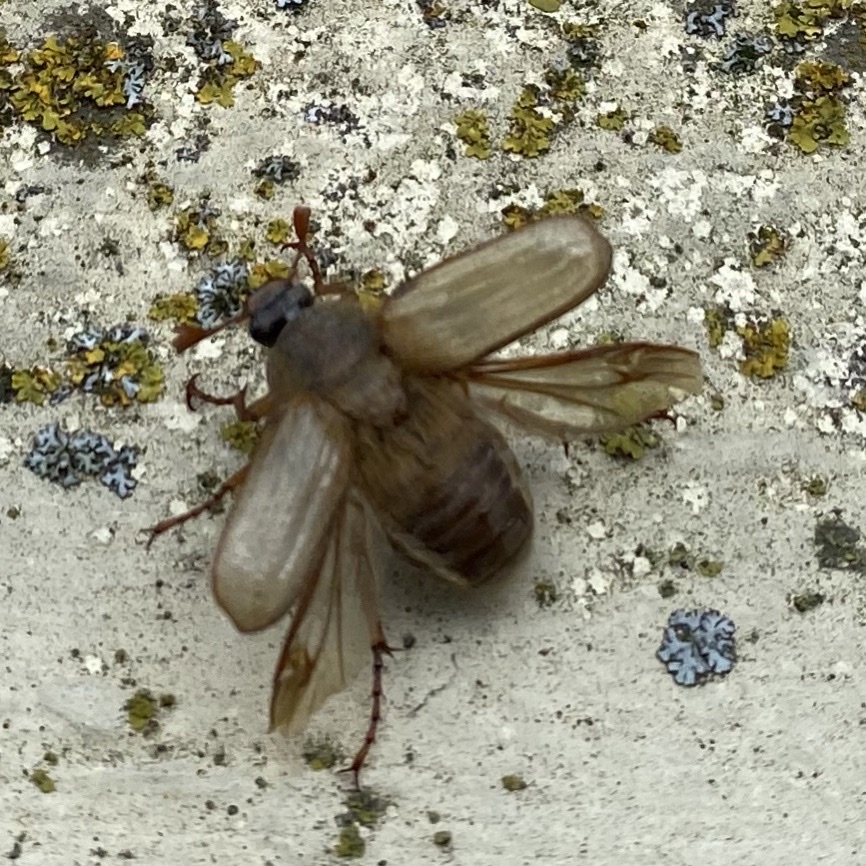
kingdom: Animalia
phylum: Arthropoda
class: Insecta
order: Coleoptera
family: Scarabaeidae
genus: Amphimallon
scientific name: Amphimallon solstitiale
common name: Summer chafer
